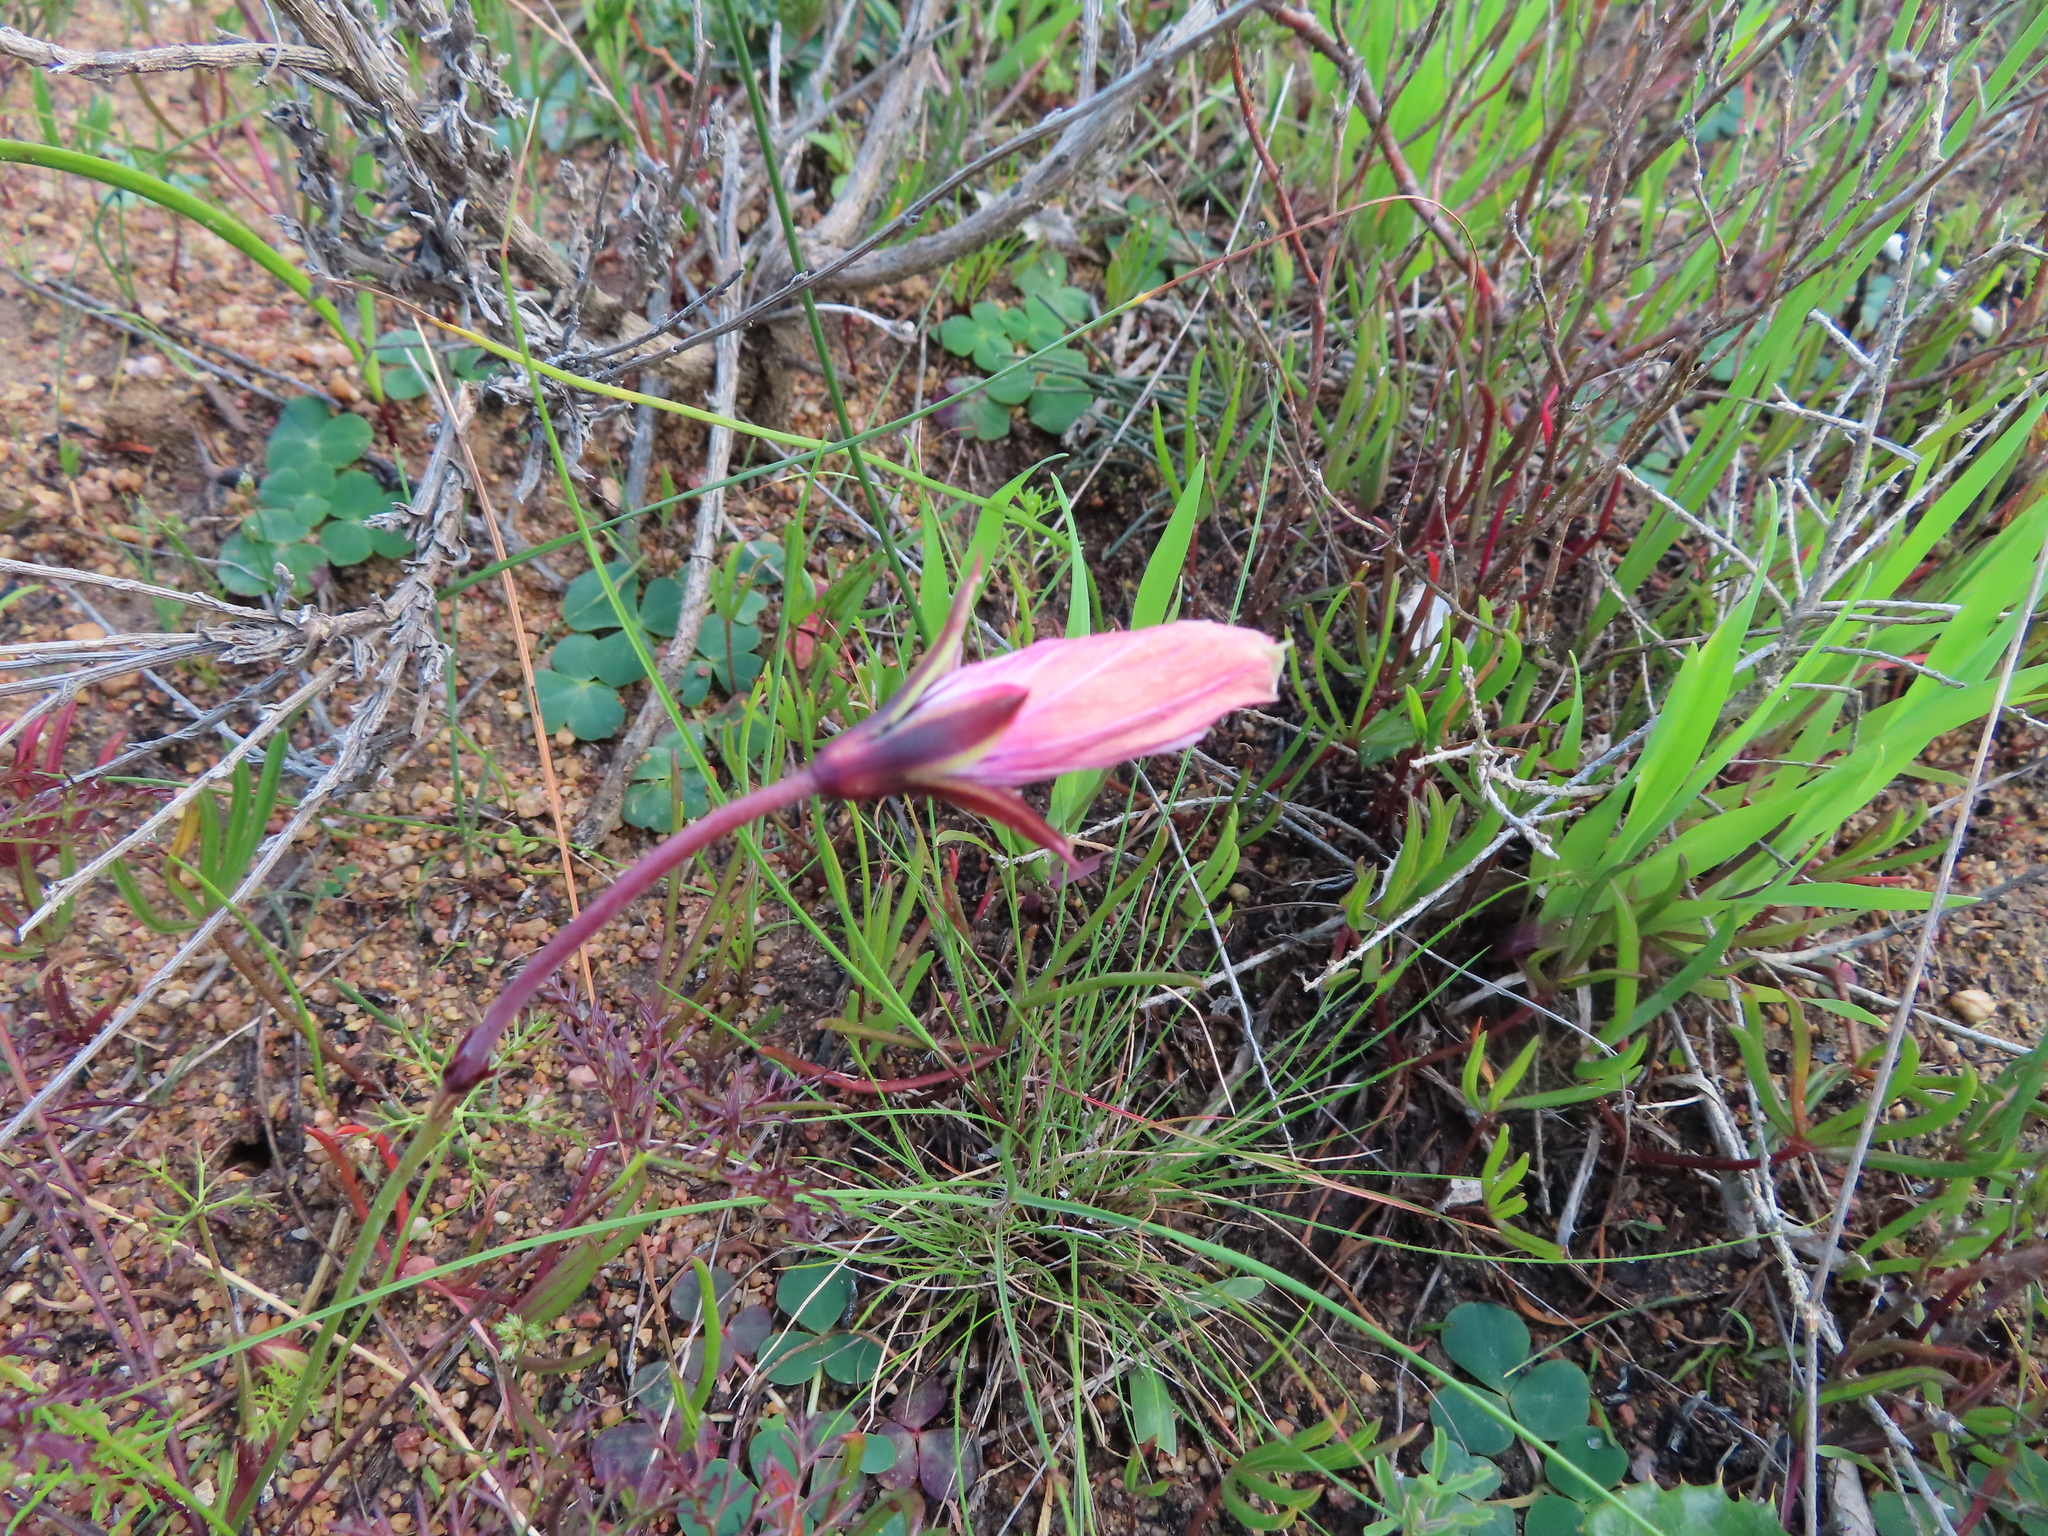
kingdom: Plantae
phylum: Tracheophyta
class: Magnoliopsida
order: Geraniales
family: Geraniaceae
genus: Monsonia
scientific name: Monsonia speciosa
